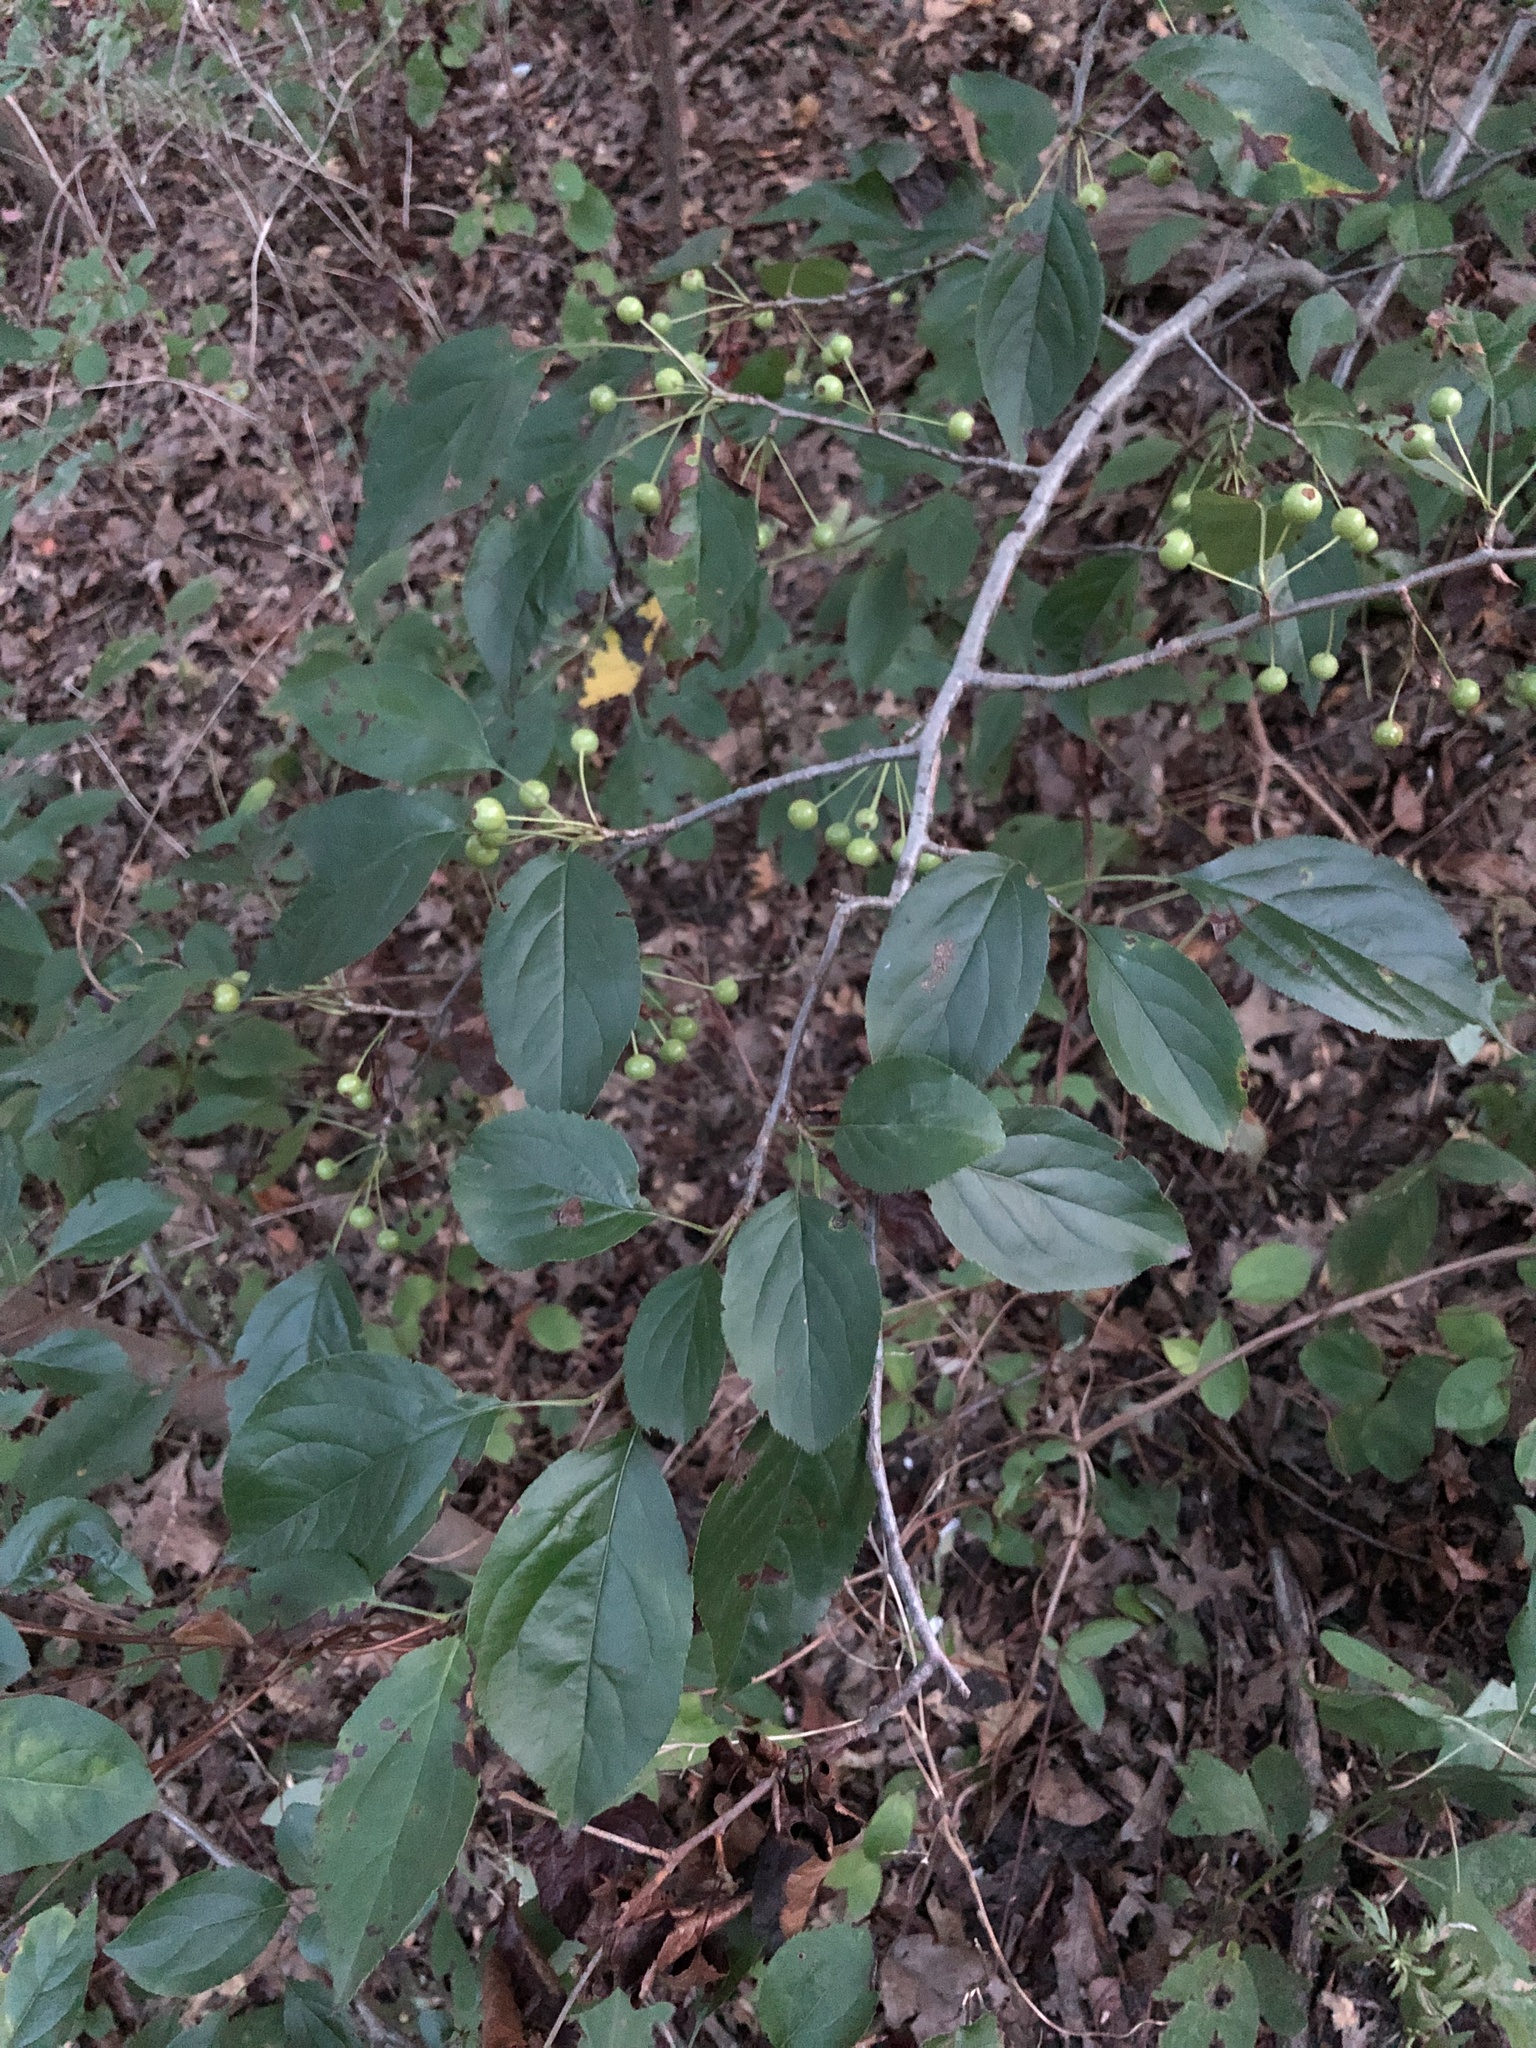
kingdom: Plantae
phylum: Tracheophyta
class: Magnoliopsida
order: Rosales
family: Rosaceae
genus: Malus
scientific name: Malus hupehensis
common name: Chinese crab apple
